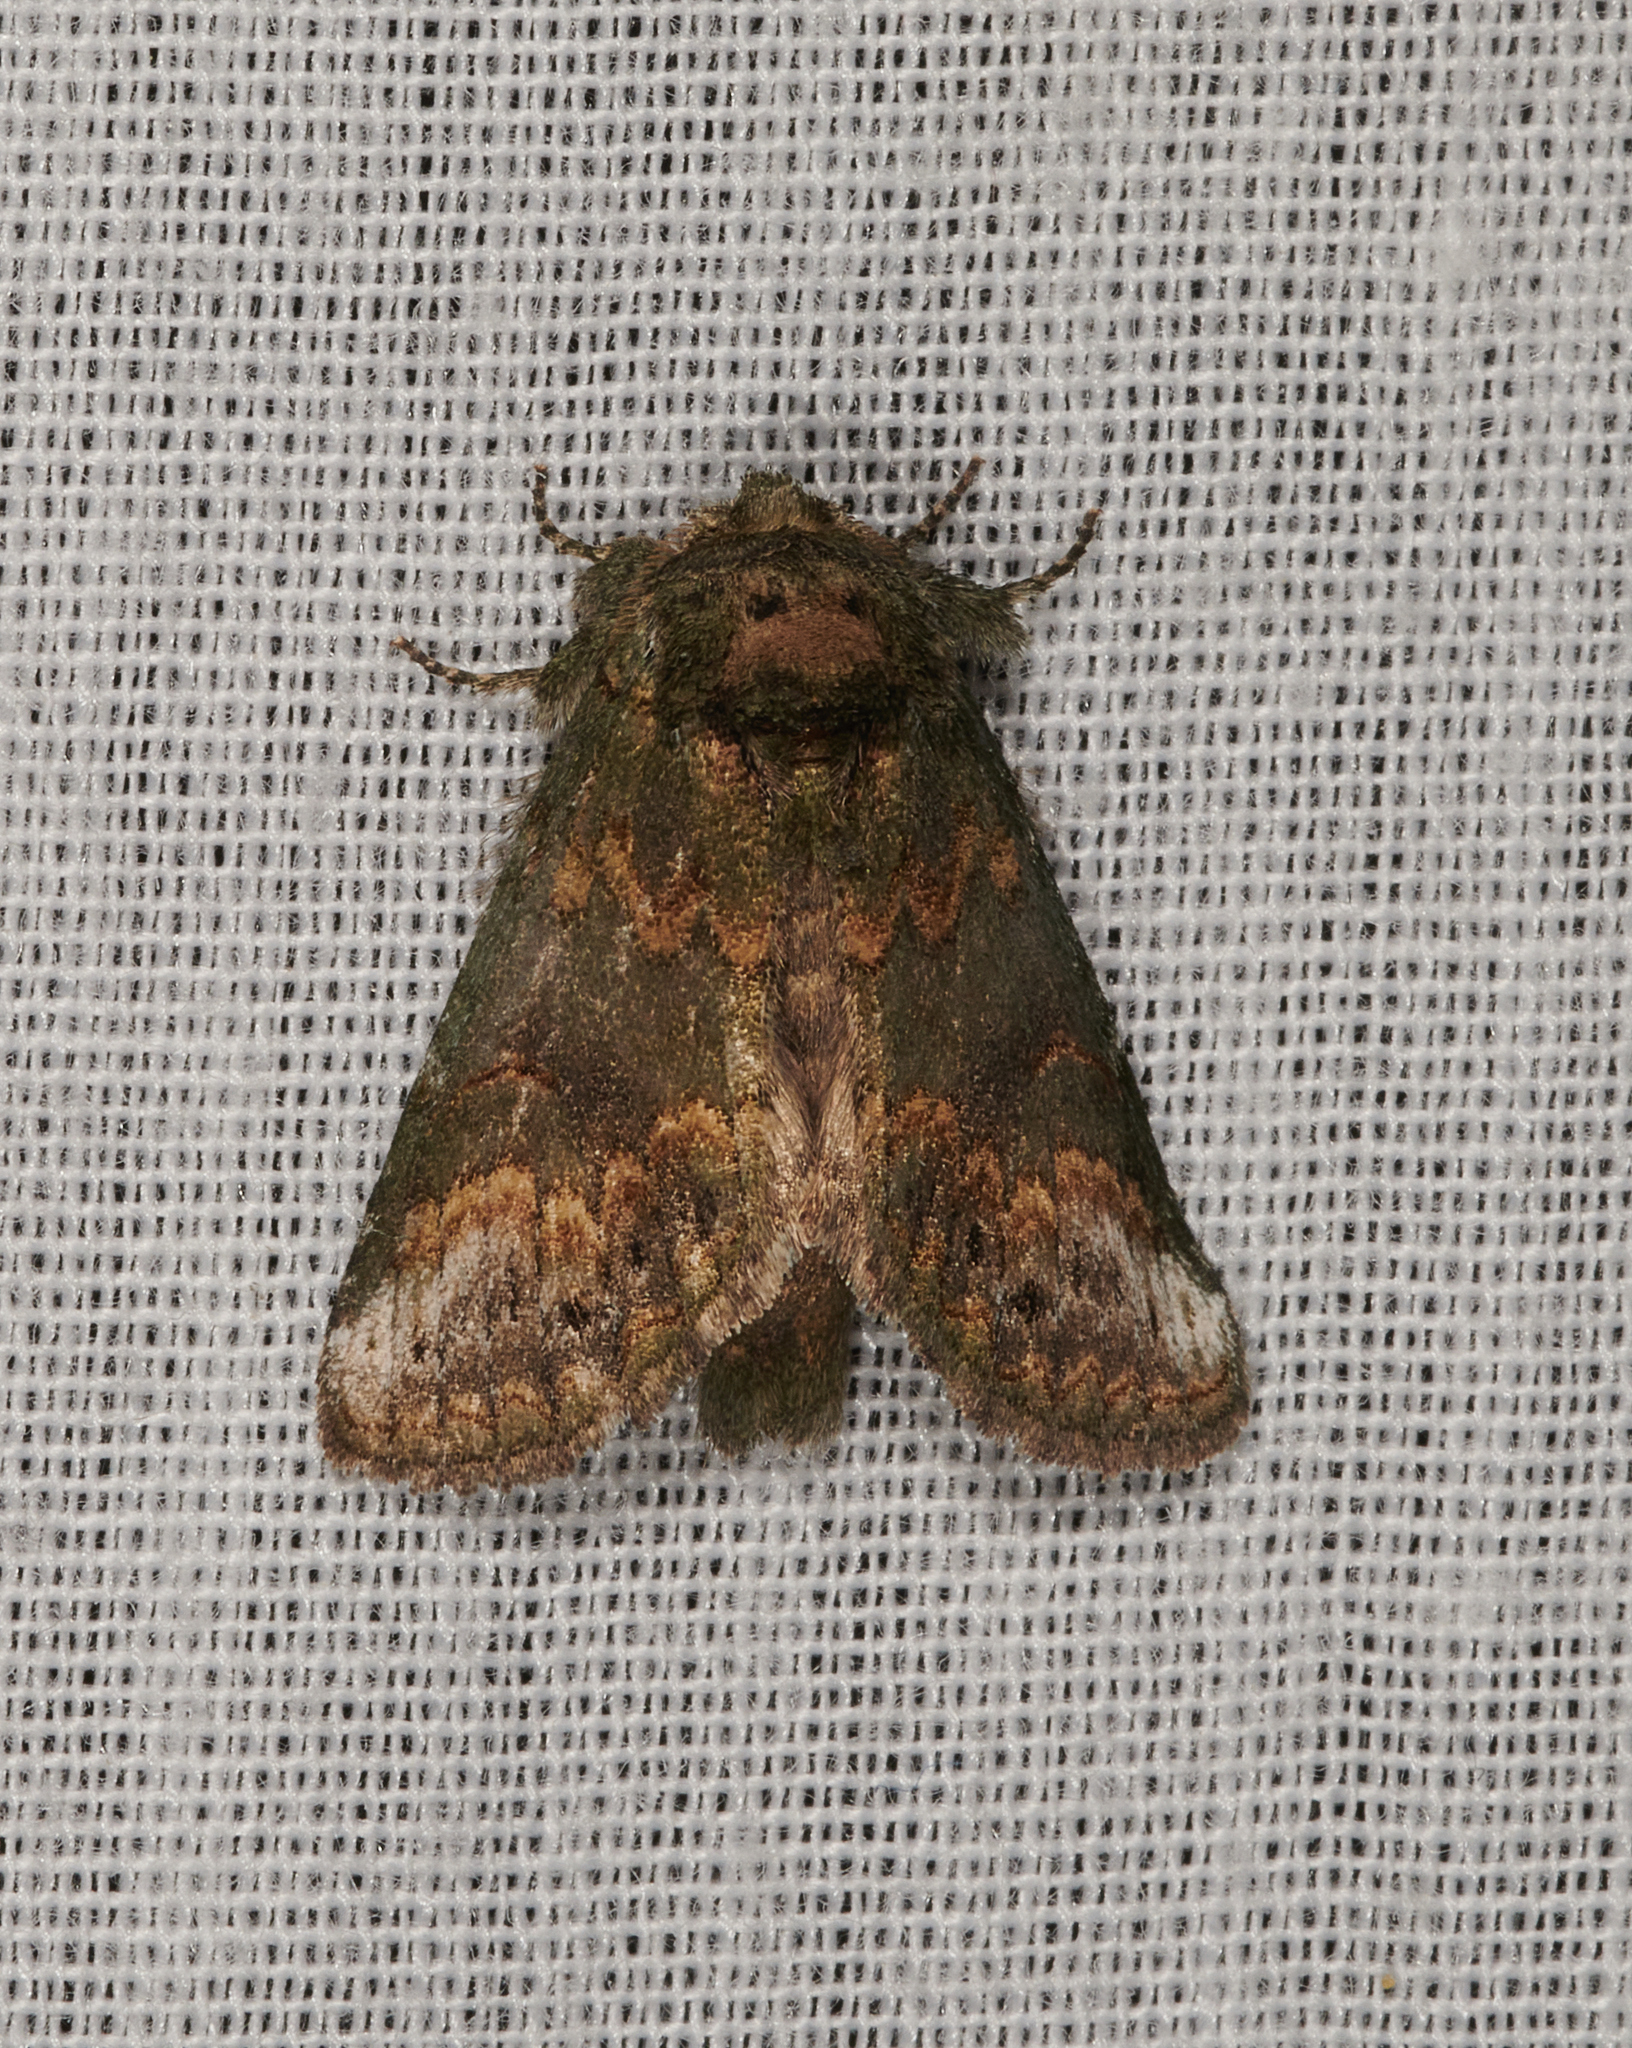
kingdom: Animalia
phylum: Arthropoda
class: Insecta
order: Lepidoptera
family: Notodontidae
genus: Rifargia
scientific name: Rifargia
